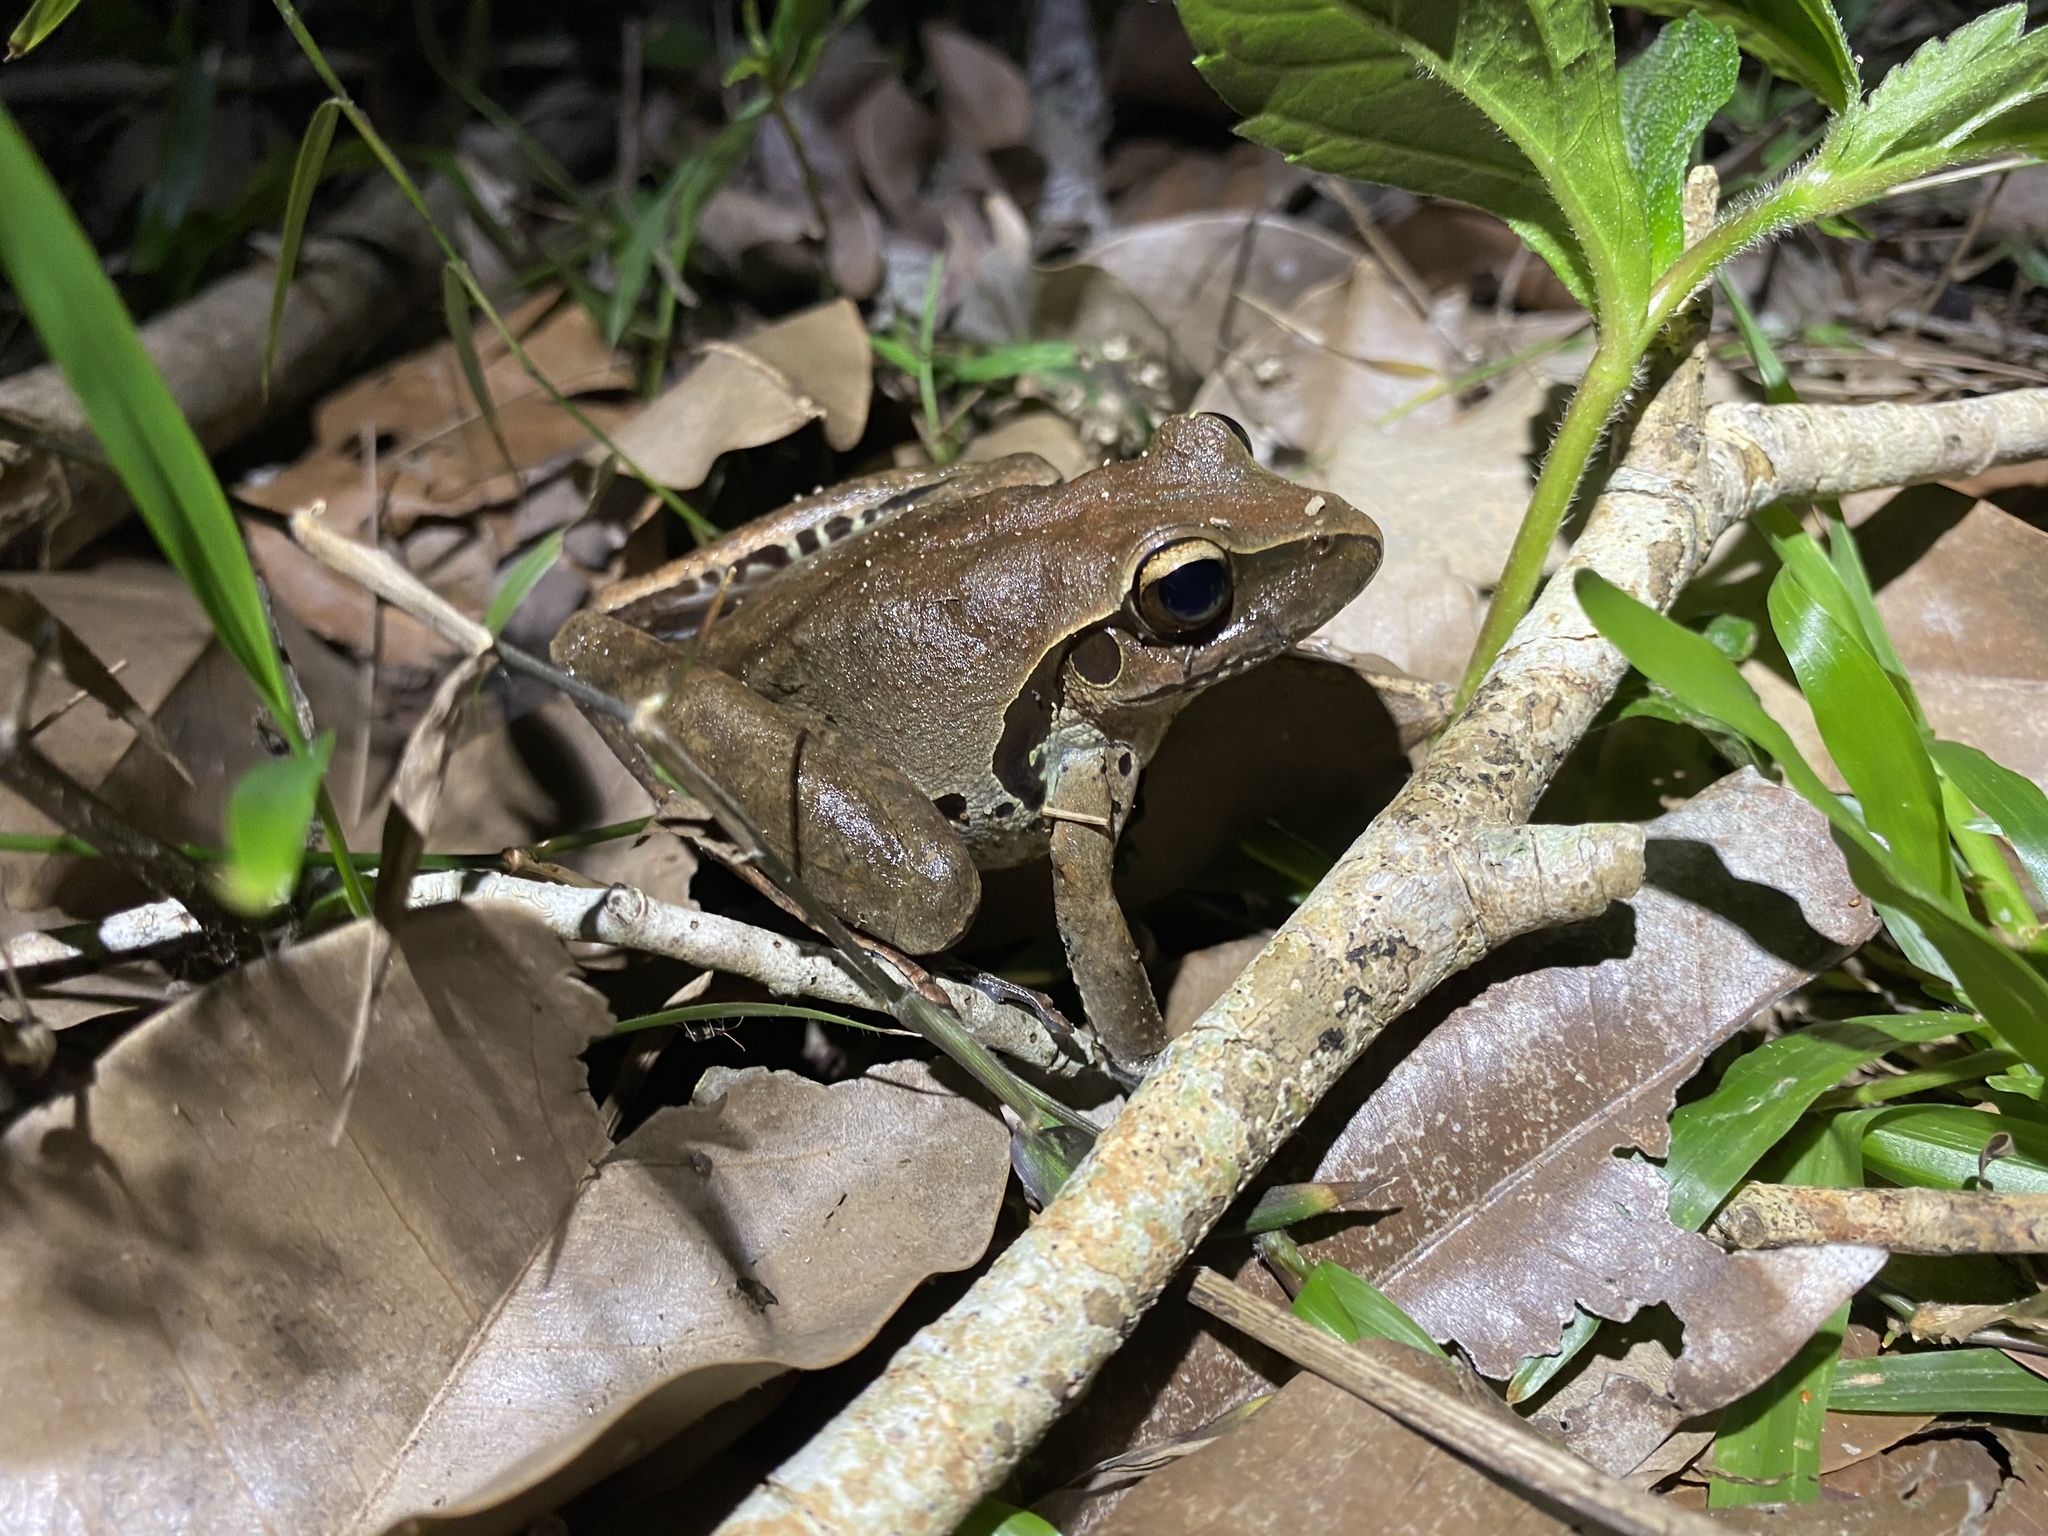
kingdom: Animalia
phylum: Chordata
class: Amphibia
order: Anura
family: Hylidae
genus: Ranoidea
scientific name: Ranoidea
